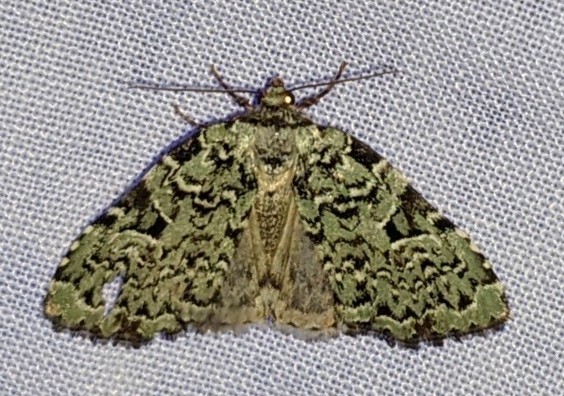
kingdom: Animalia
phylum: Arthropoda
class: Insecta
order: Lepidoptera
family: Noctuidae
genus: Leuconycta
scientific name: Leuconycta diphteroides
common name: Green leuconycta moth
